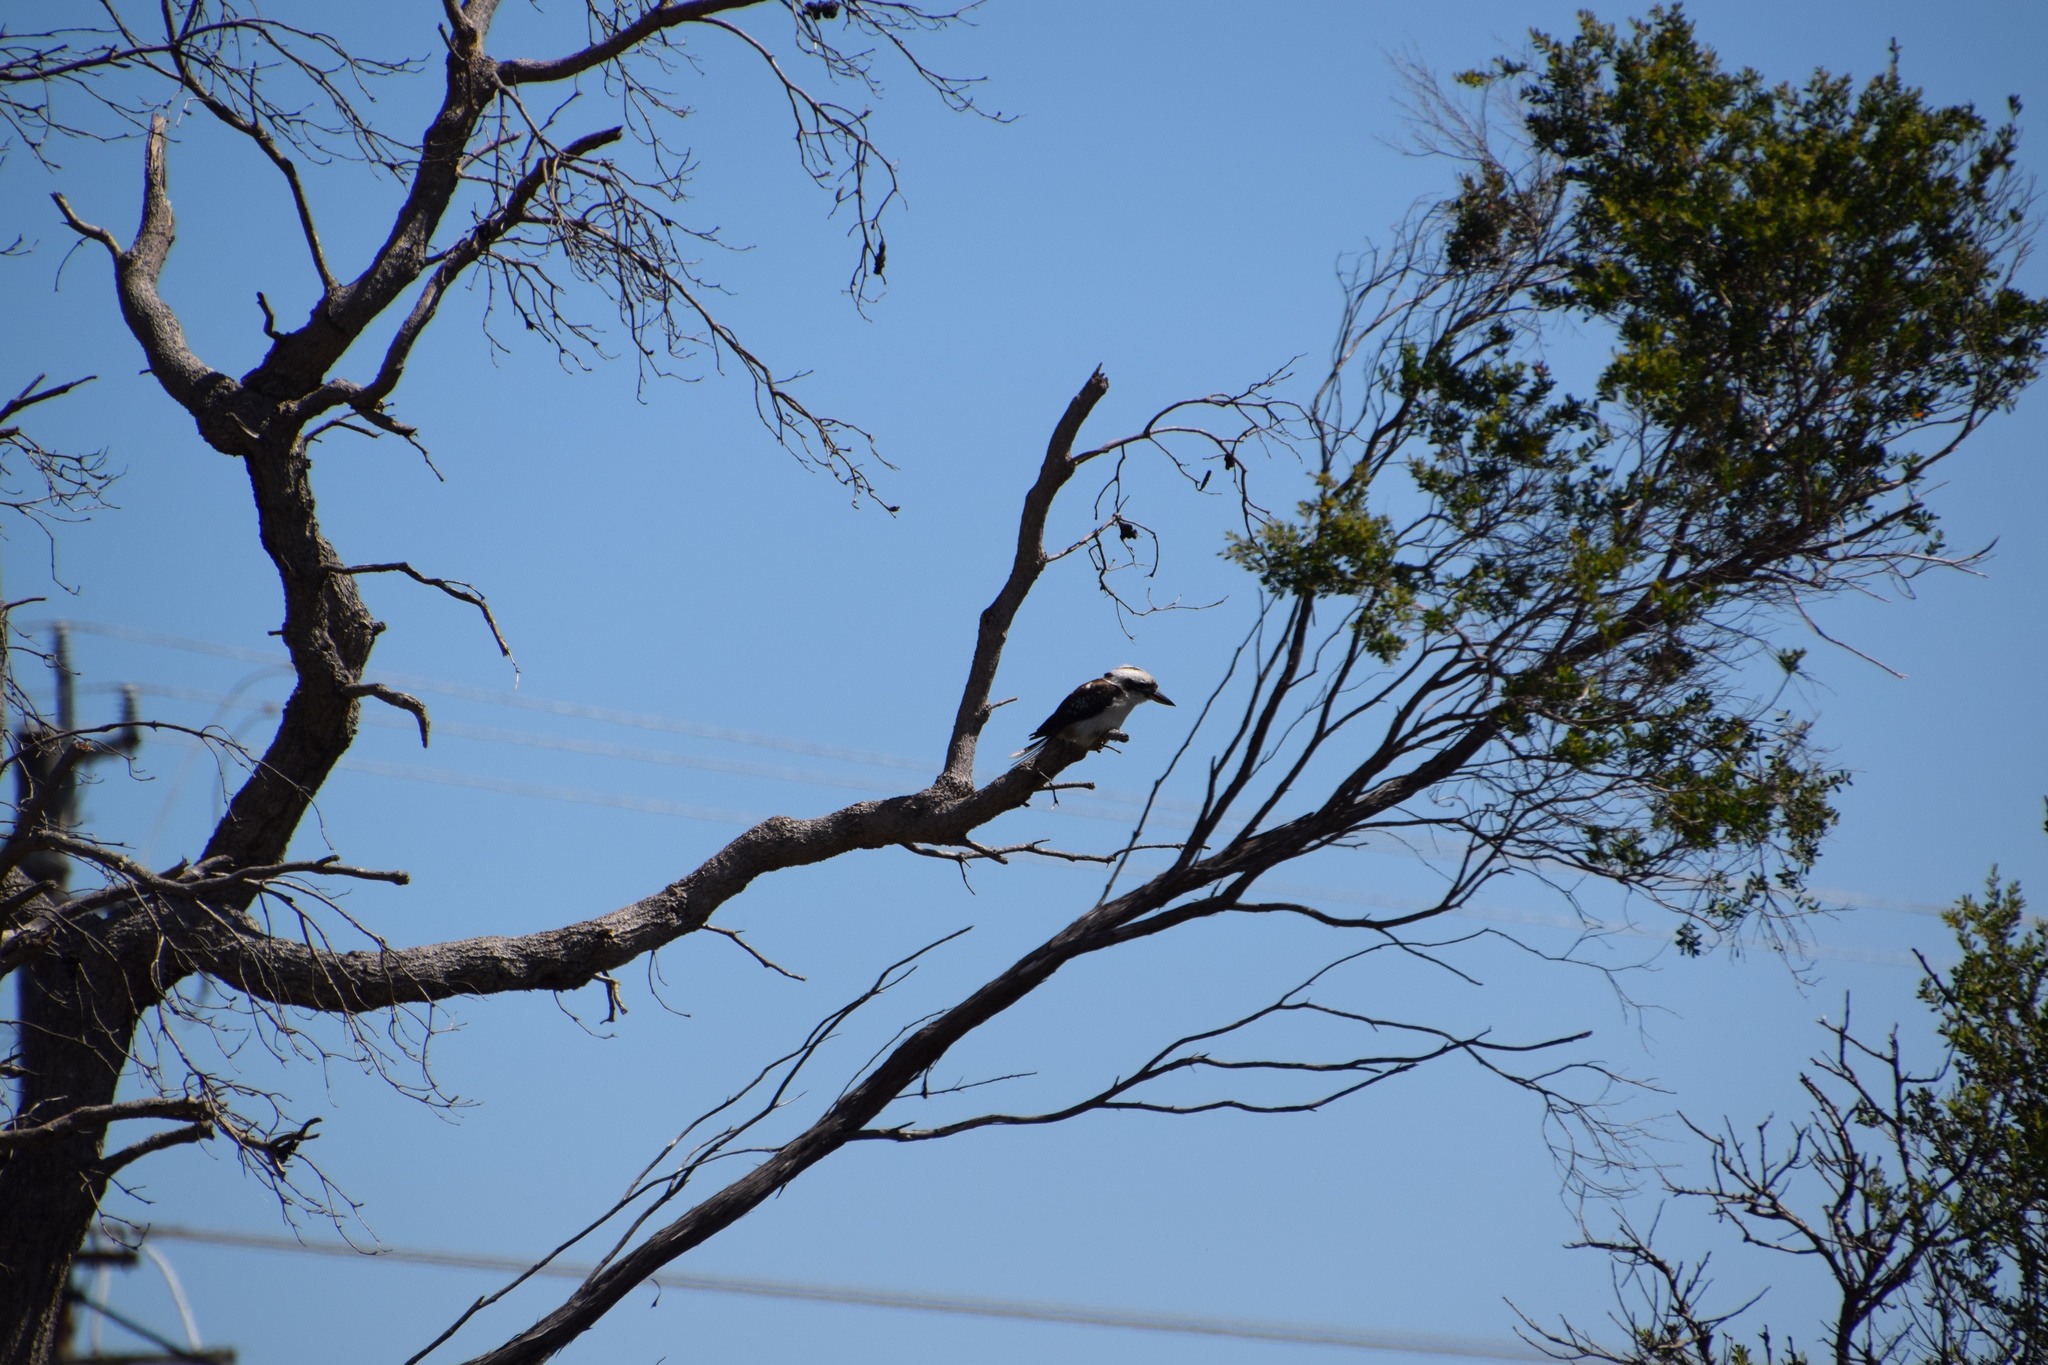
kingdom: Animalia
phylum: Chordata
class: Aves
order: Coraciiformes
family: Alcedinidae
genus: Dacelo
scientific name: Dacelo novaeguineae
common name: Laughing kookaburra
